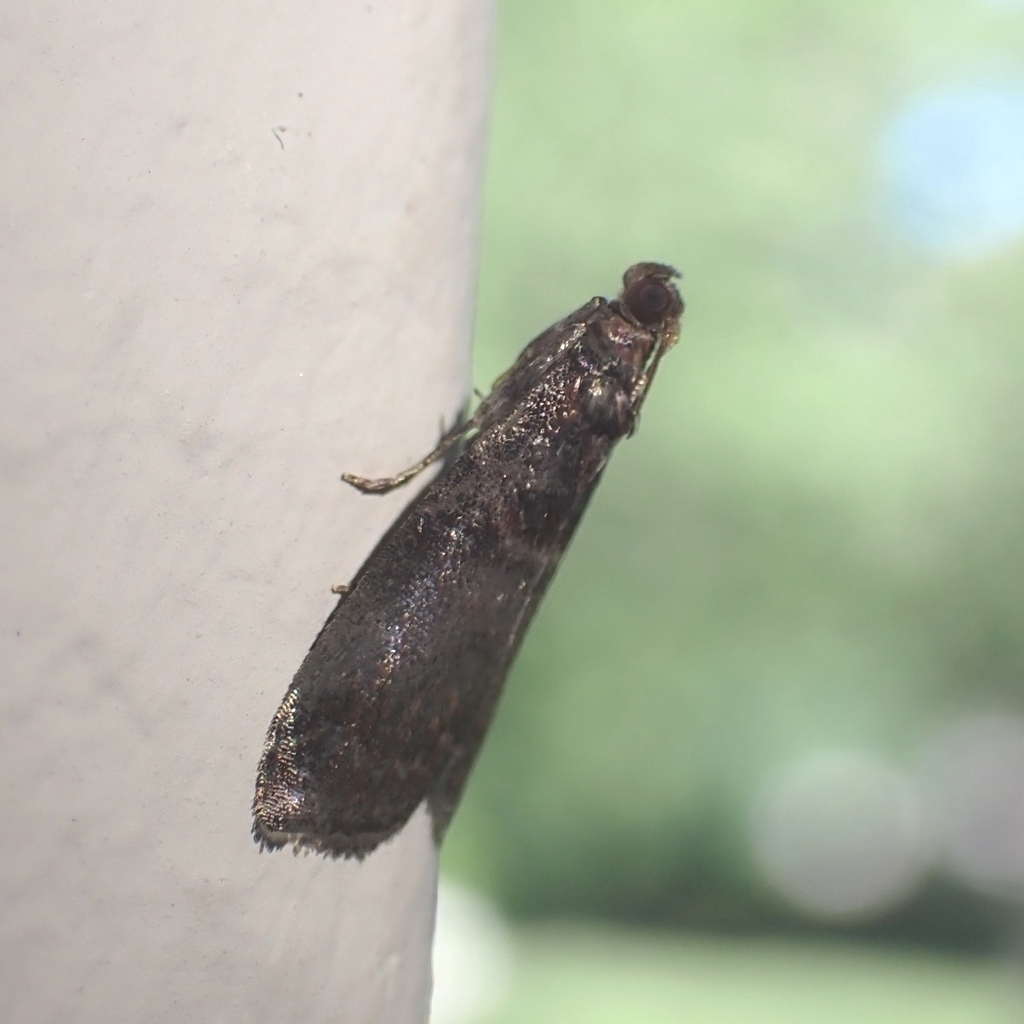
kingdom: Animalia
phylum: Arthropoda
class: Insecta
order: Lepidoptera
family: Pyralidae
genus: Acrobasis
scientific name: Acrobasis advenella
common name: Grey knot-horn
